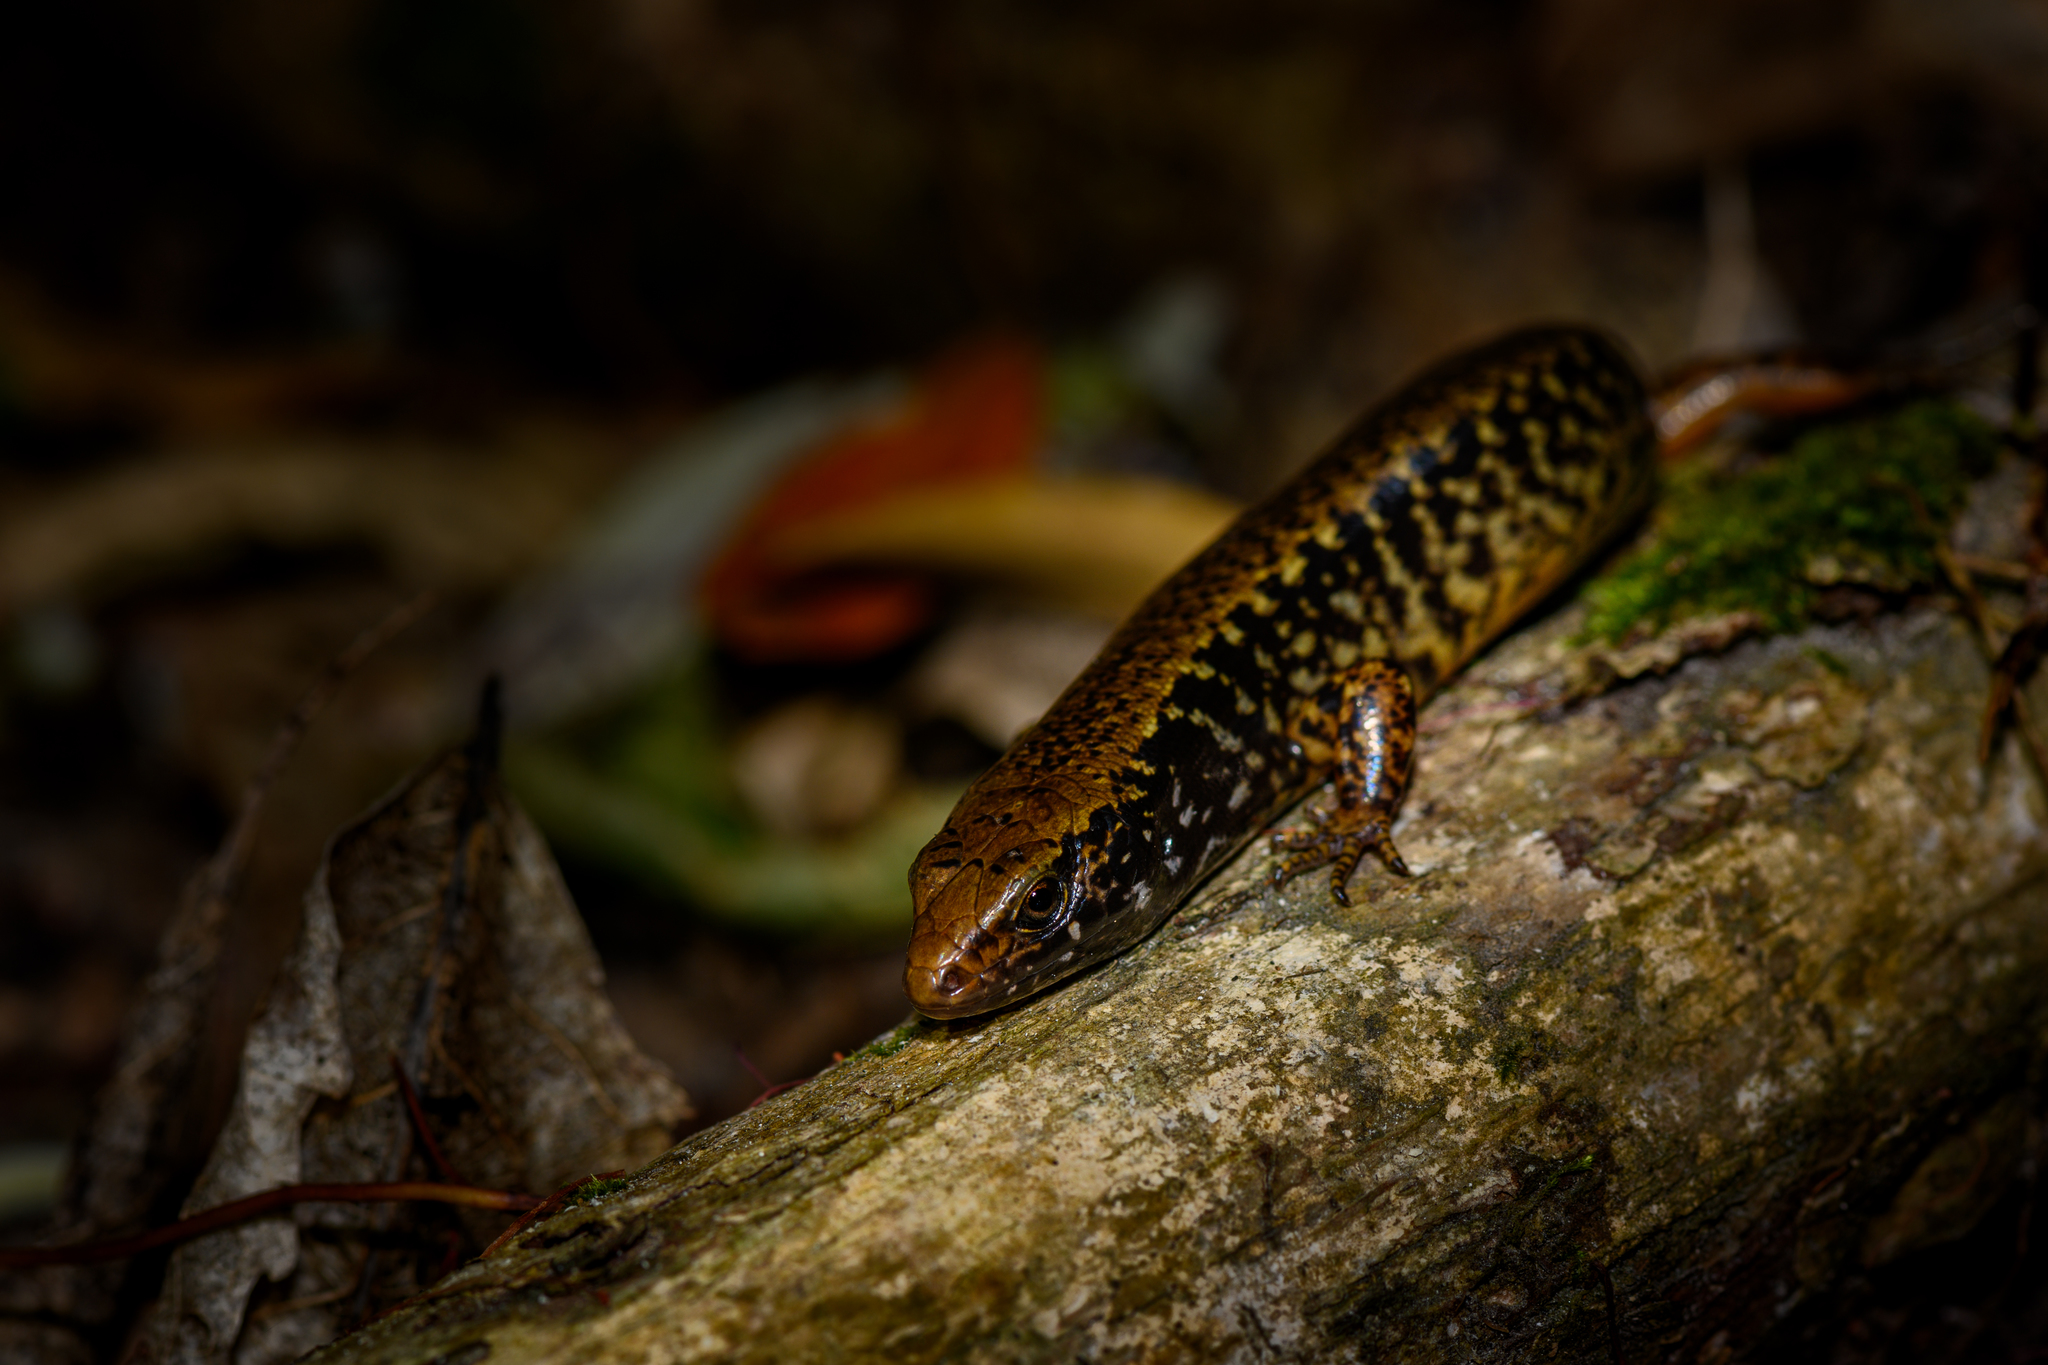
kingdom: Animalia
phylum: Chordata
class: Squamata
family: Scincidae
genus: Oligosoma
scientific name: Oligosoma whitakeri
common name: Whitaker's new zealand skink
